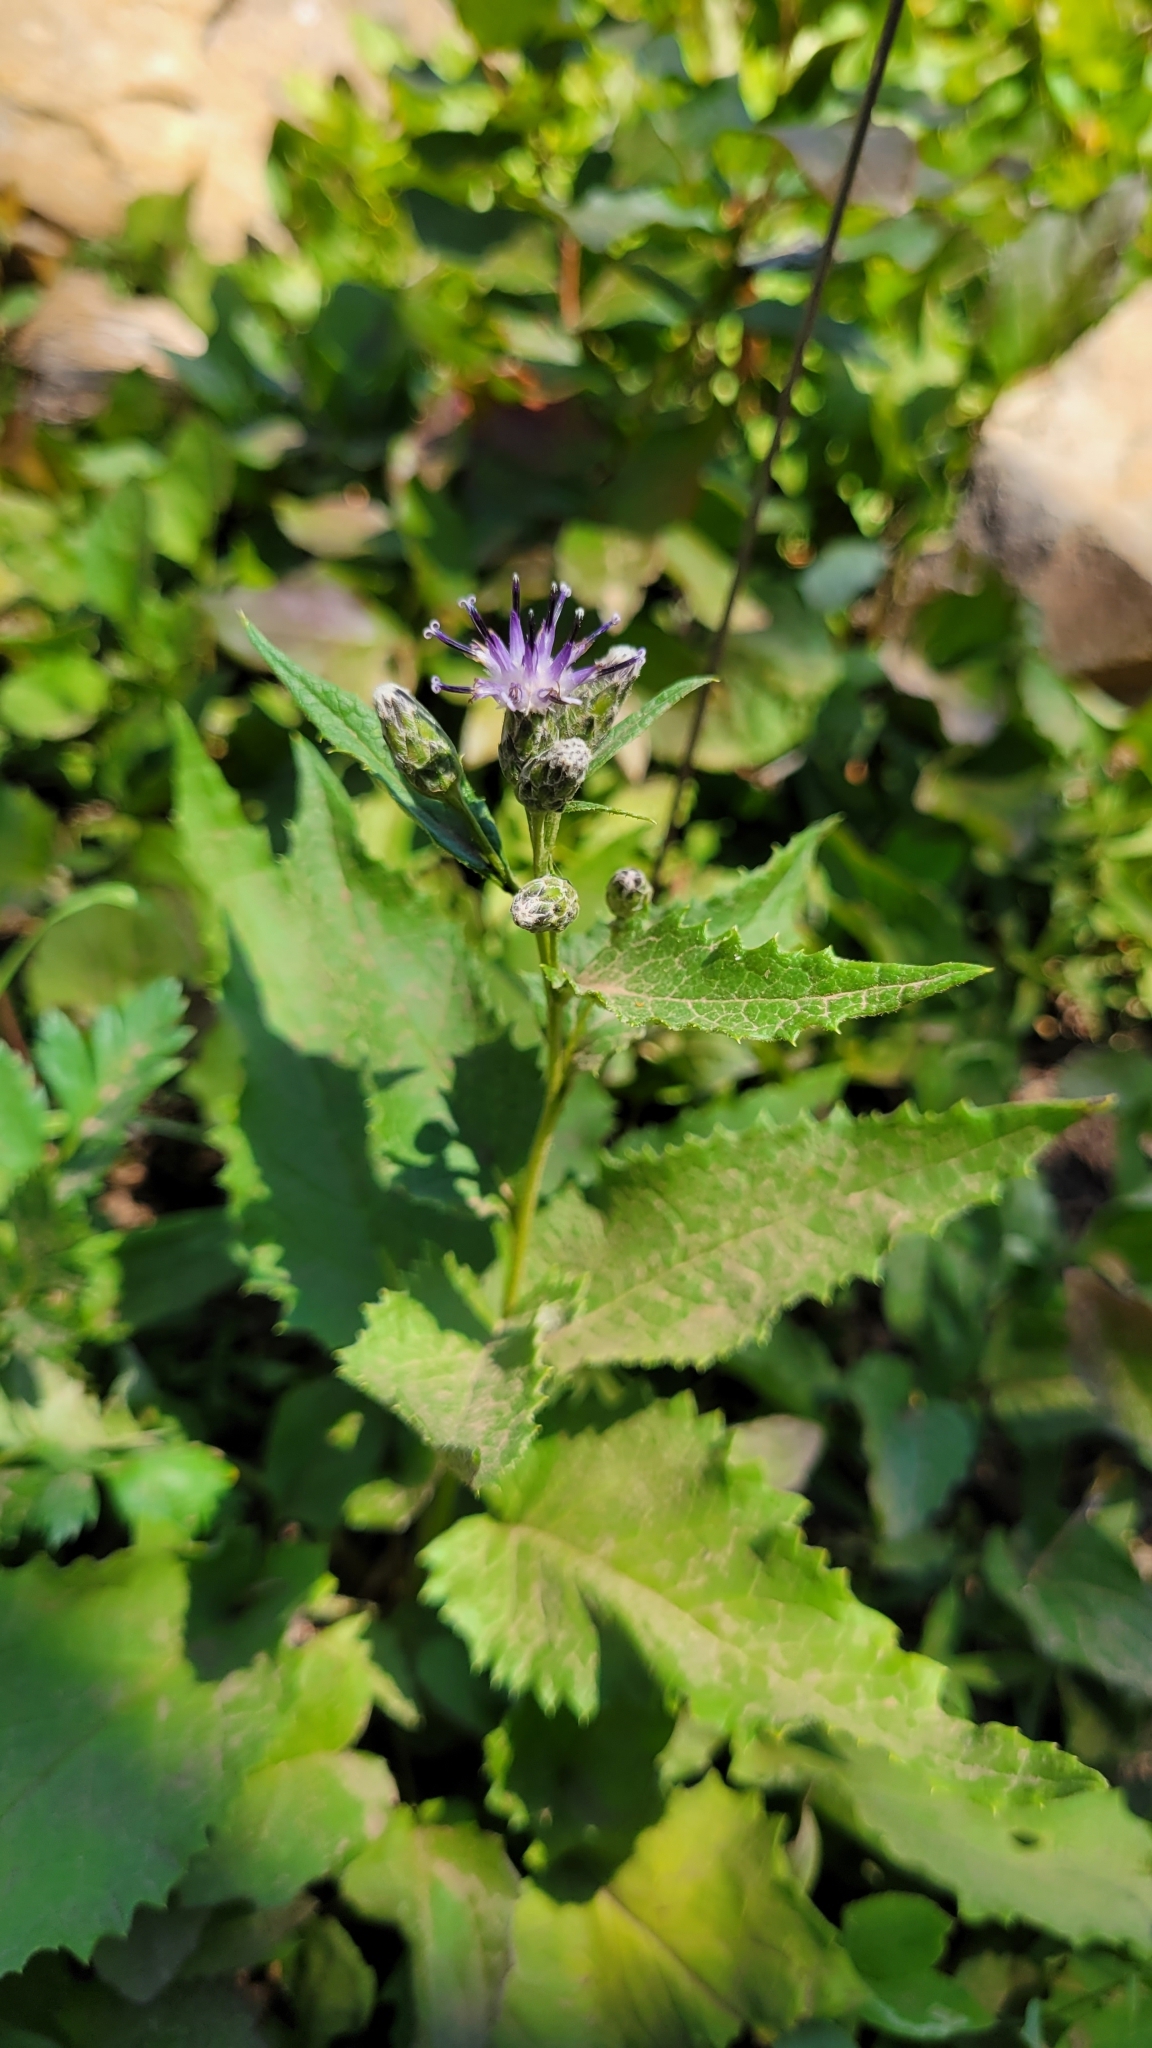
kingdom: Plantae
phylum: Tracheophyta
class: Magnoliopsida
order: Asterales
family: Asteraceae
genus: Saussurea
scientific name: Saussurea americana
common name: American saw-wort
